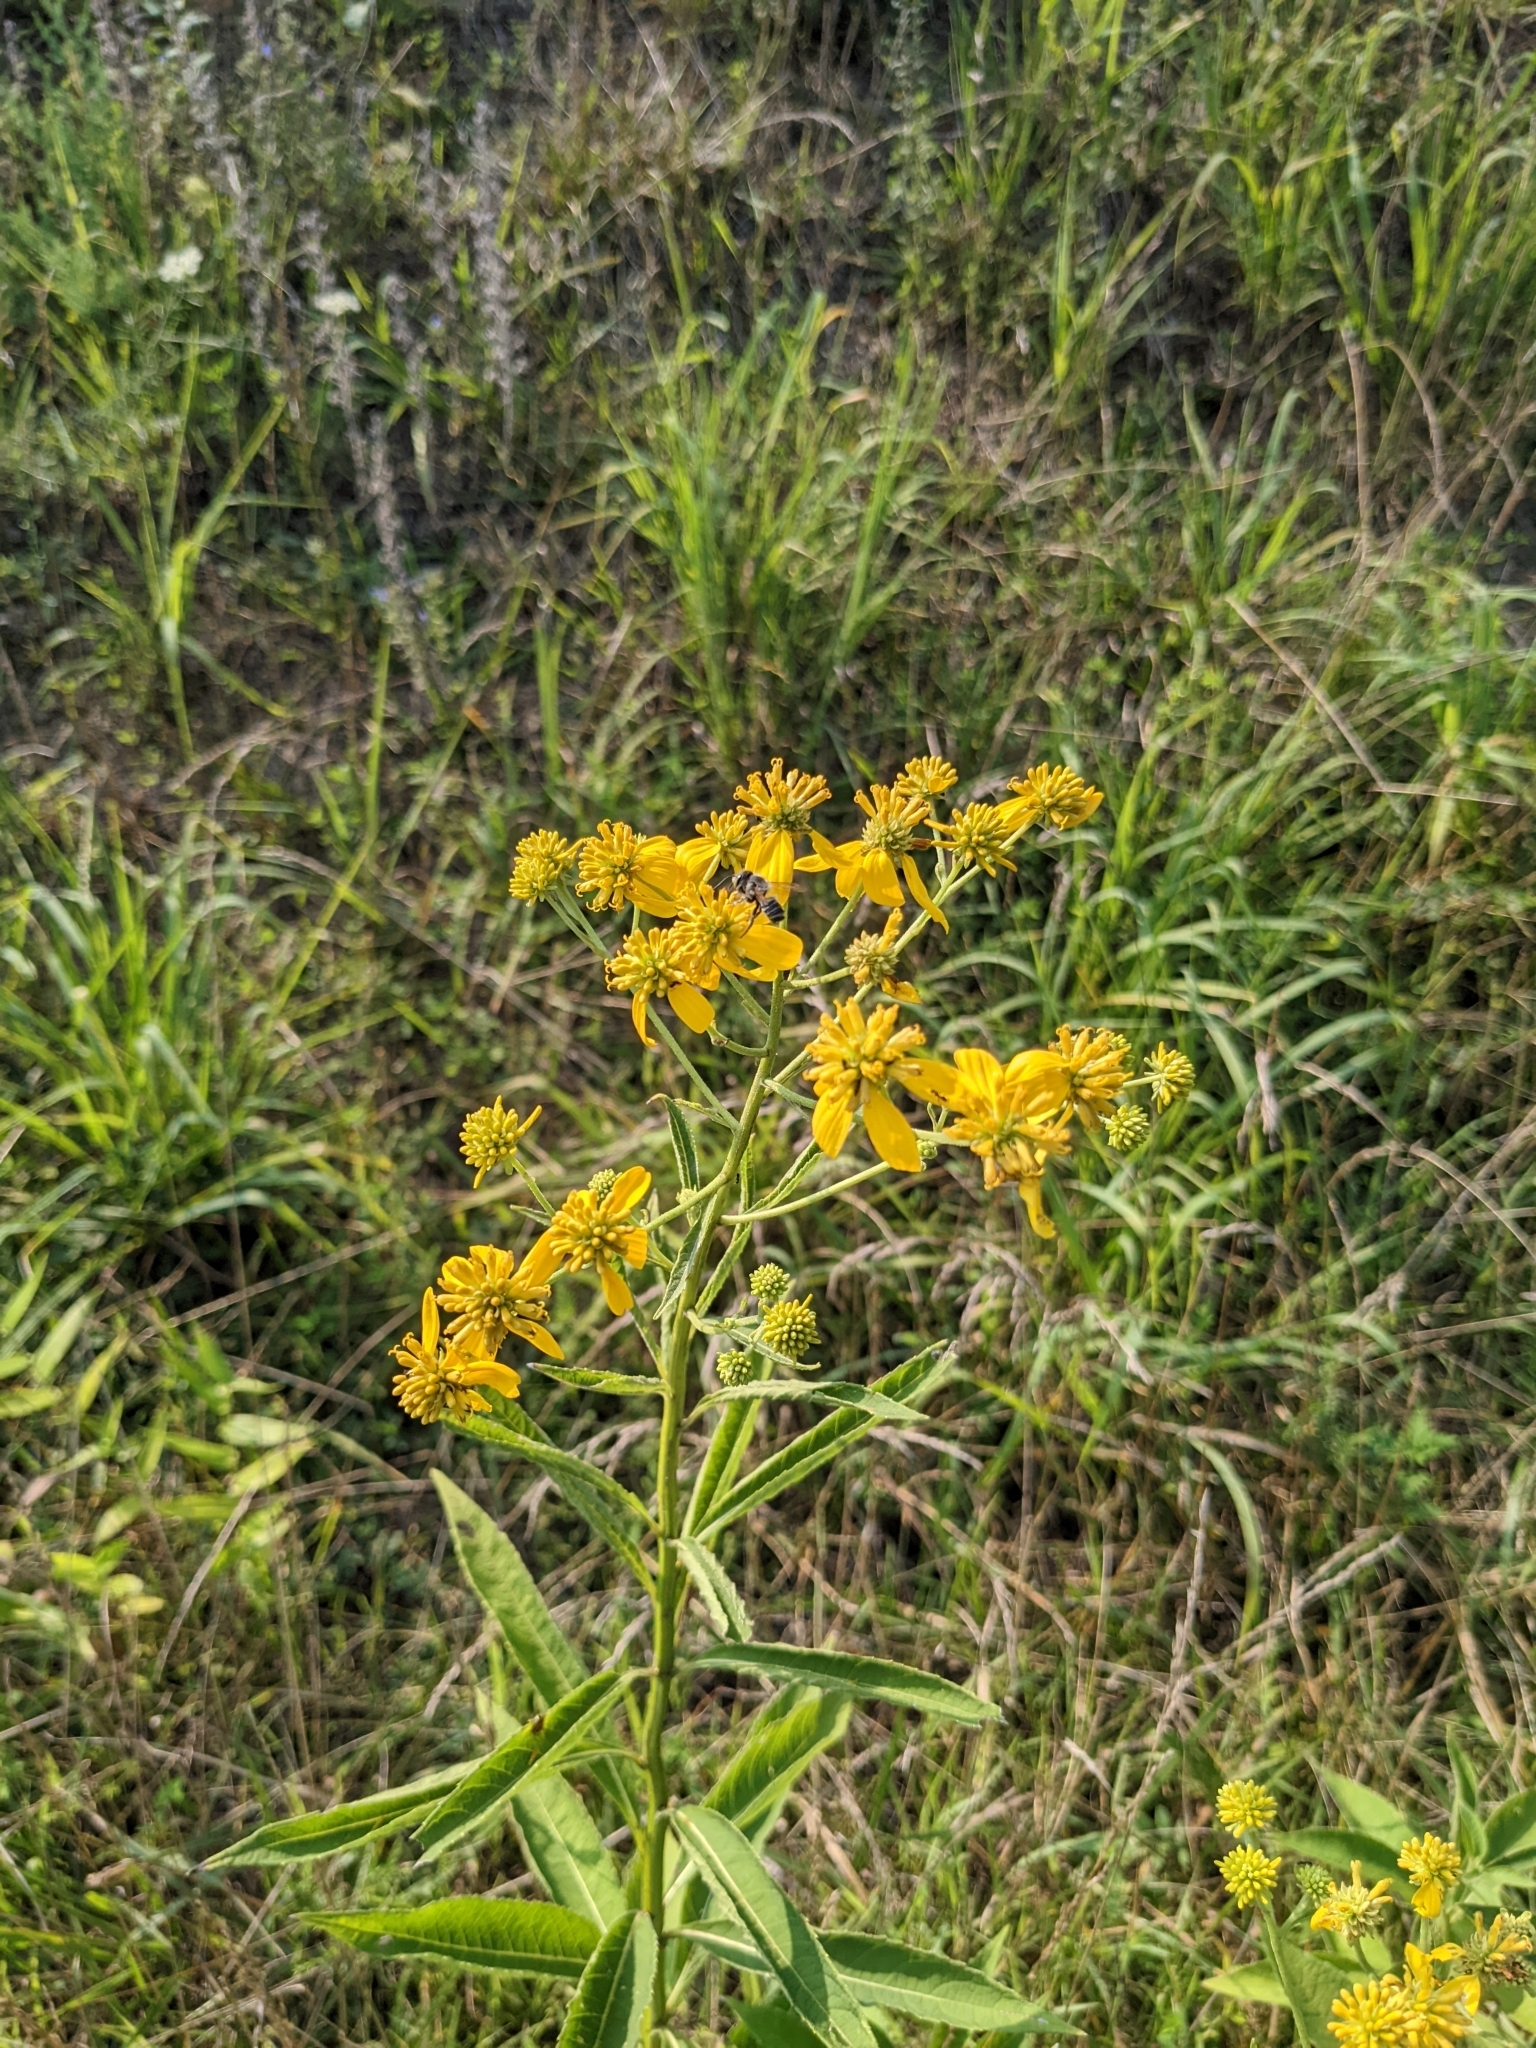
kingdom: Plantae
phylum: Tracheophyta
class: Magnoliopsida
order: Asterales
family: Asteraceae
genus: Verbesina
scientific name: Verbesina alternifolia
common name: Wingstem
